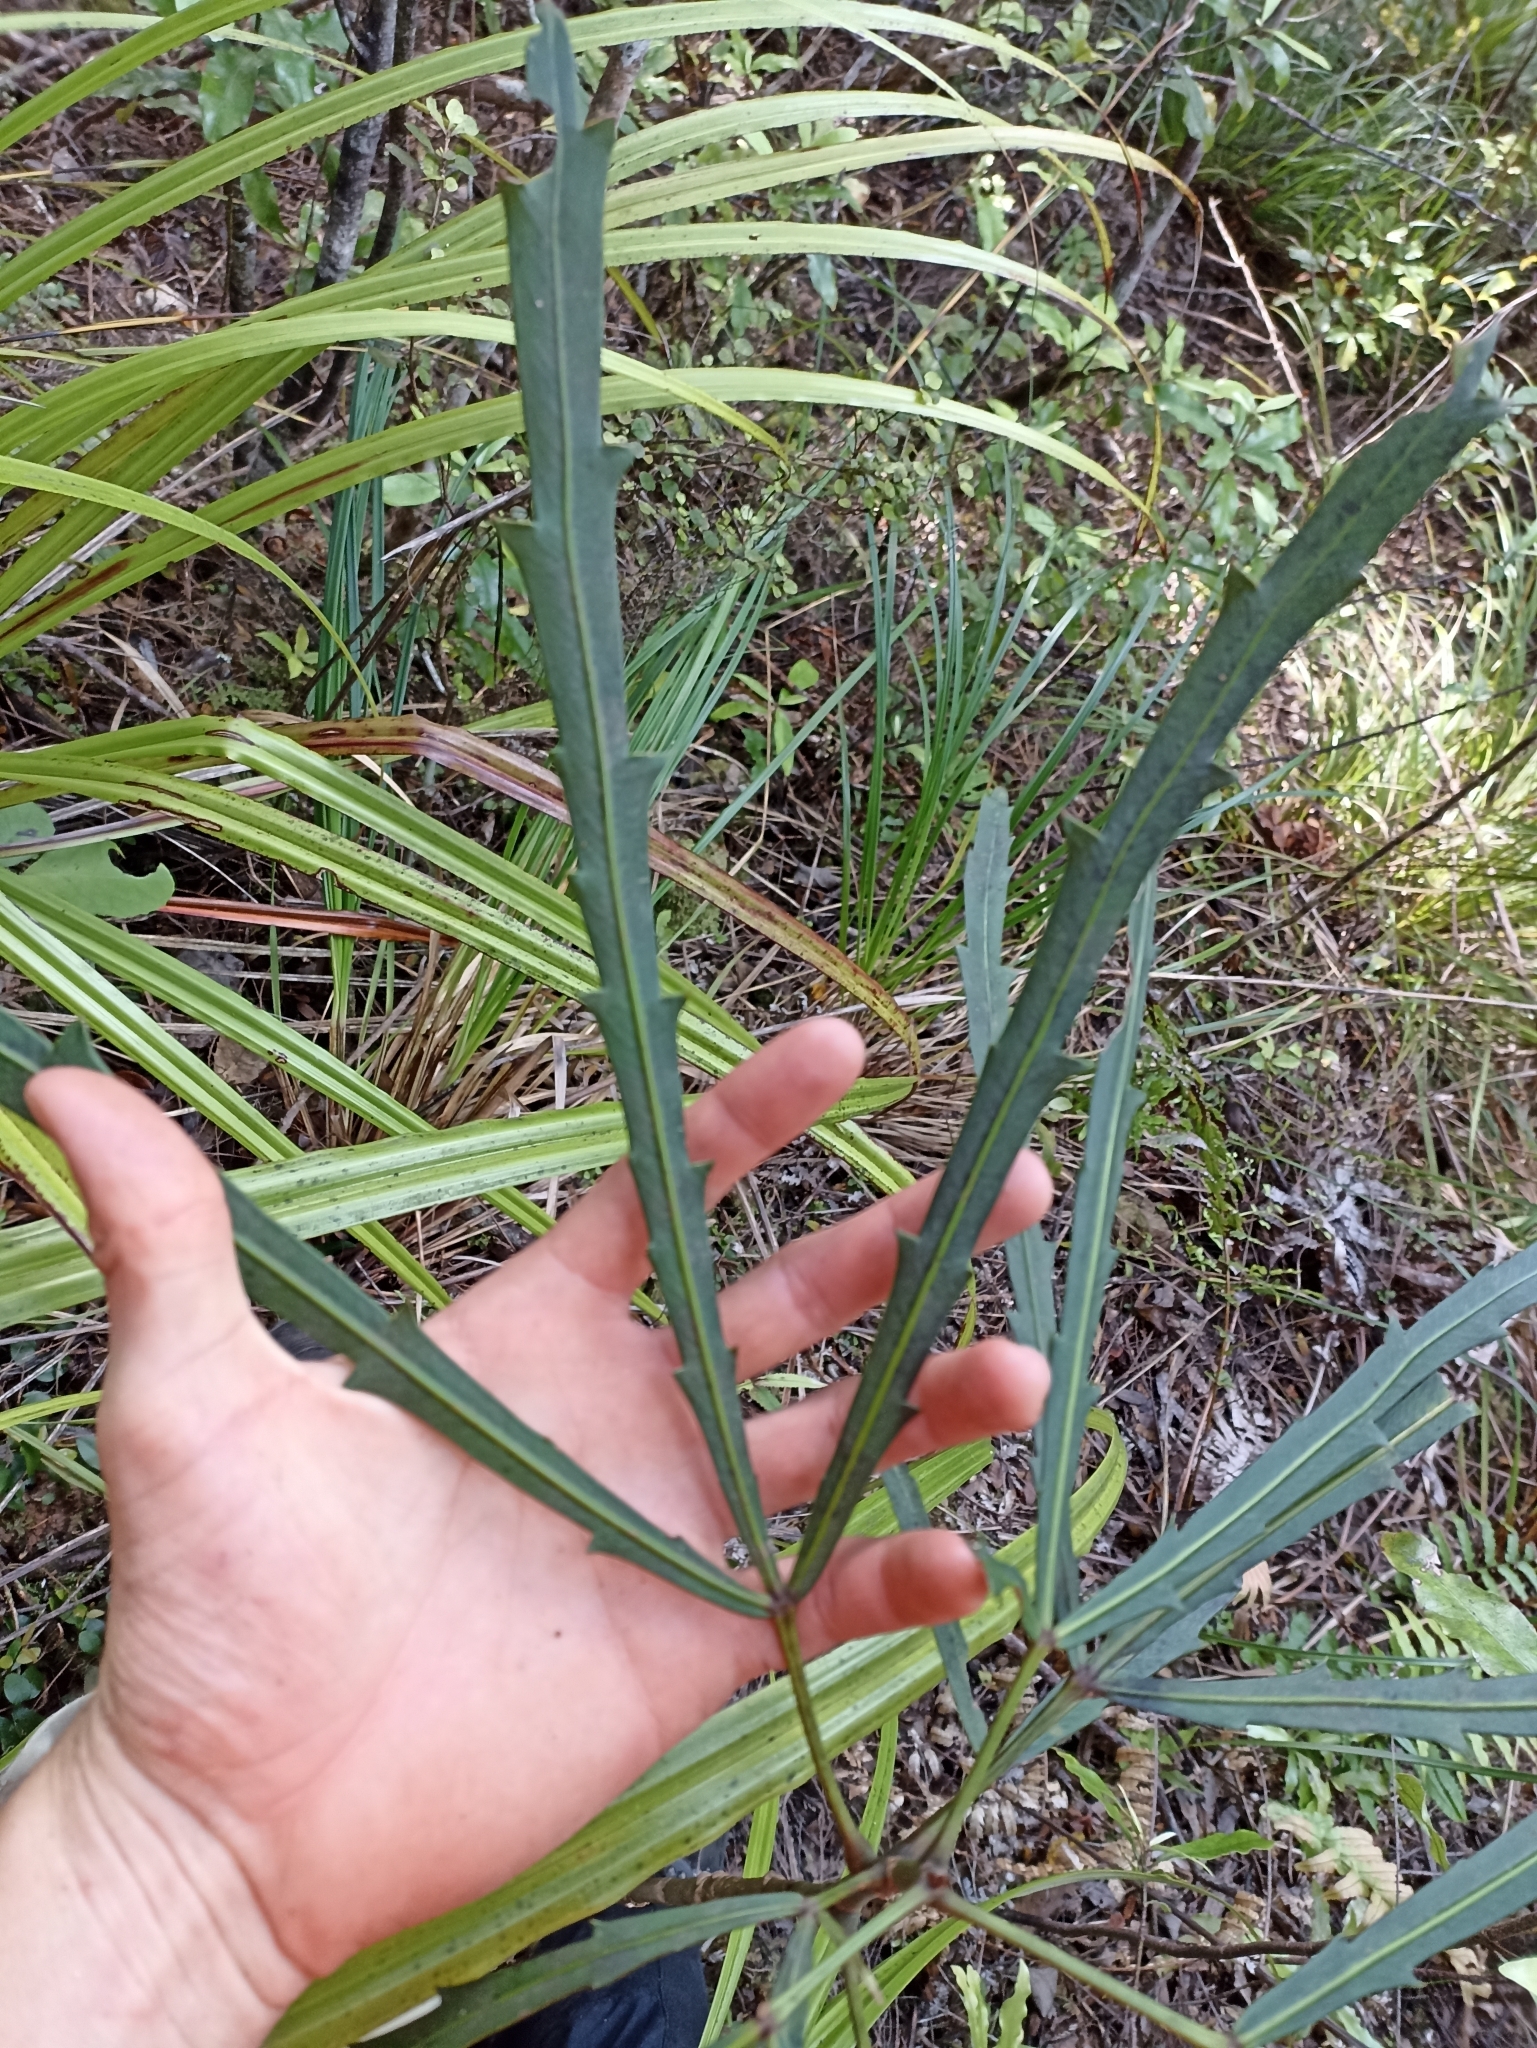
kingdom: Plantae
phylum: Tracheophyta
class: Magnoliopsida
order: Apiales
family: Araliaceae
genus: Pseudopanax
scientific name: Pseudopanax
